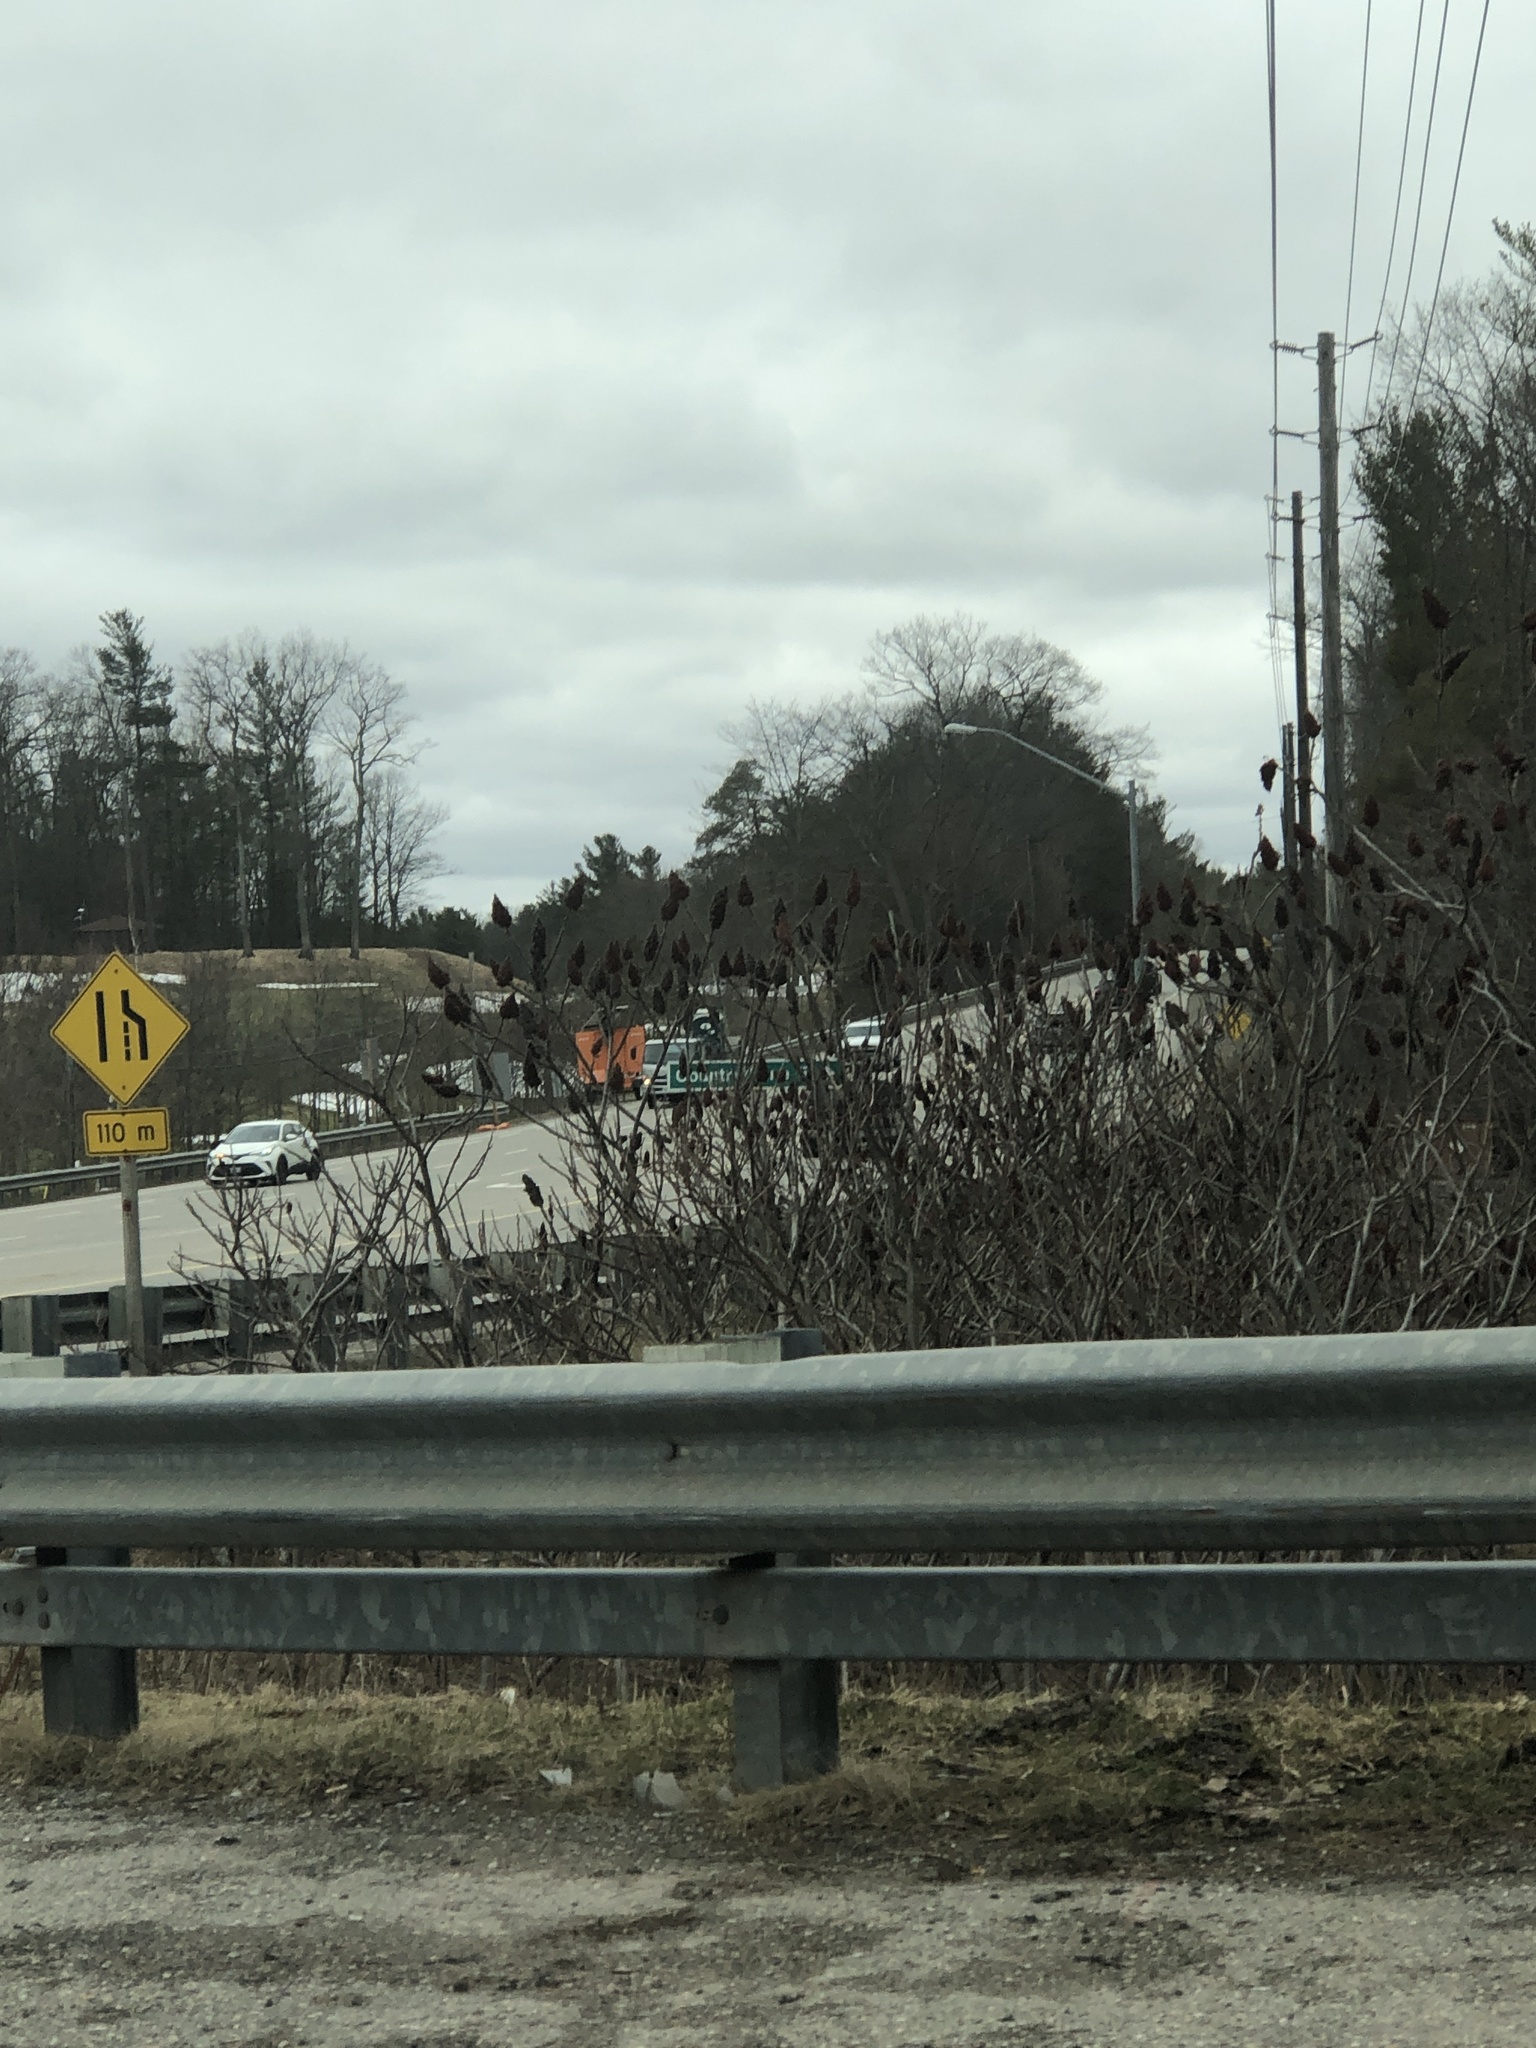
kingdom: Plantae
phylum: Tracheophyta
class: Magnoliopsida
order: Sapindales
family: Anacardiaceae
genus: Rhus
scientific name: Rhus typhina
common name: Staghorn sumac
